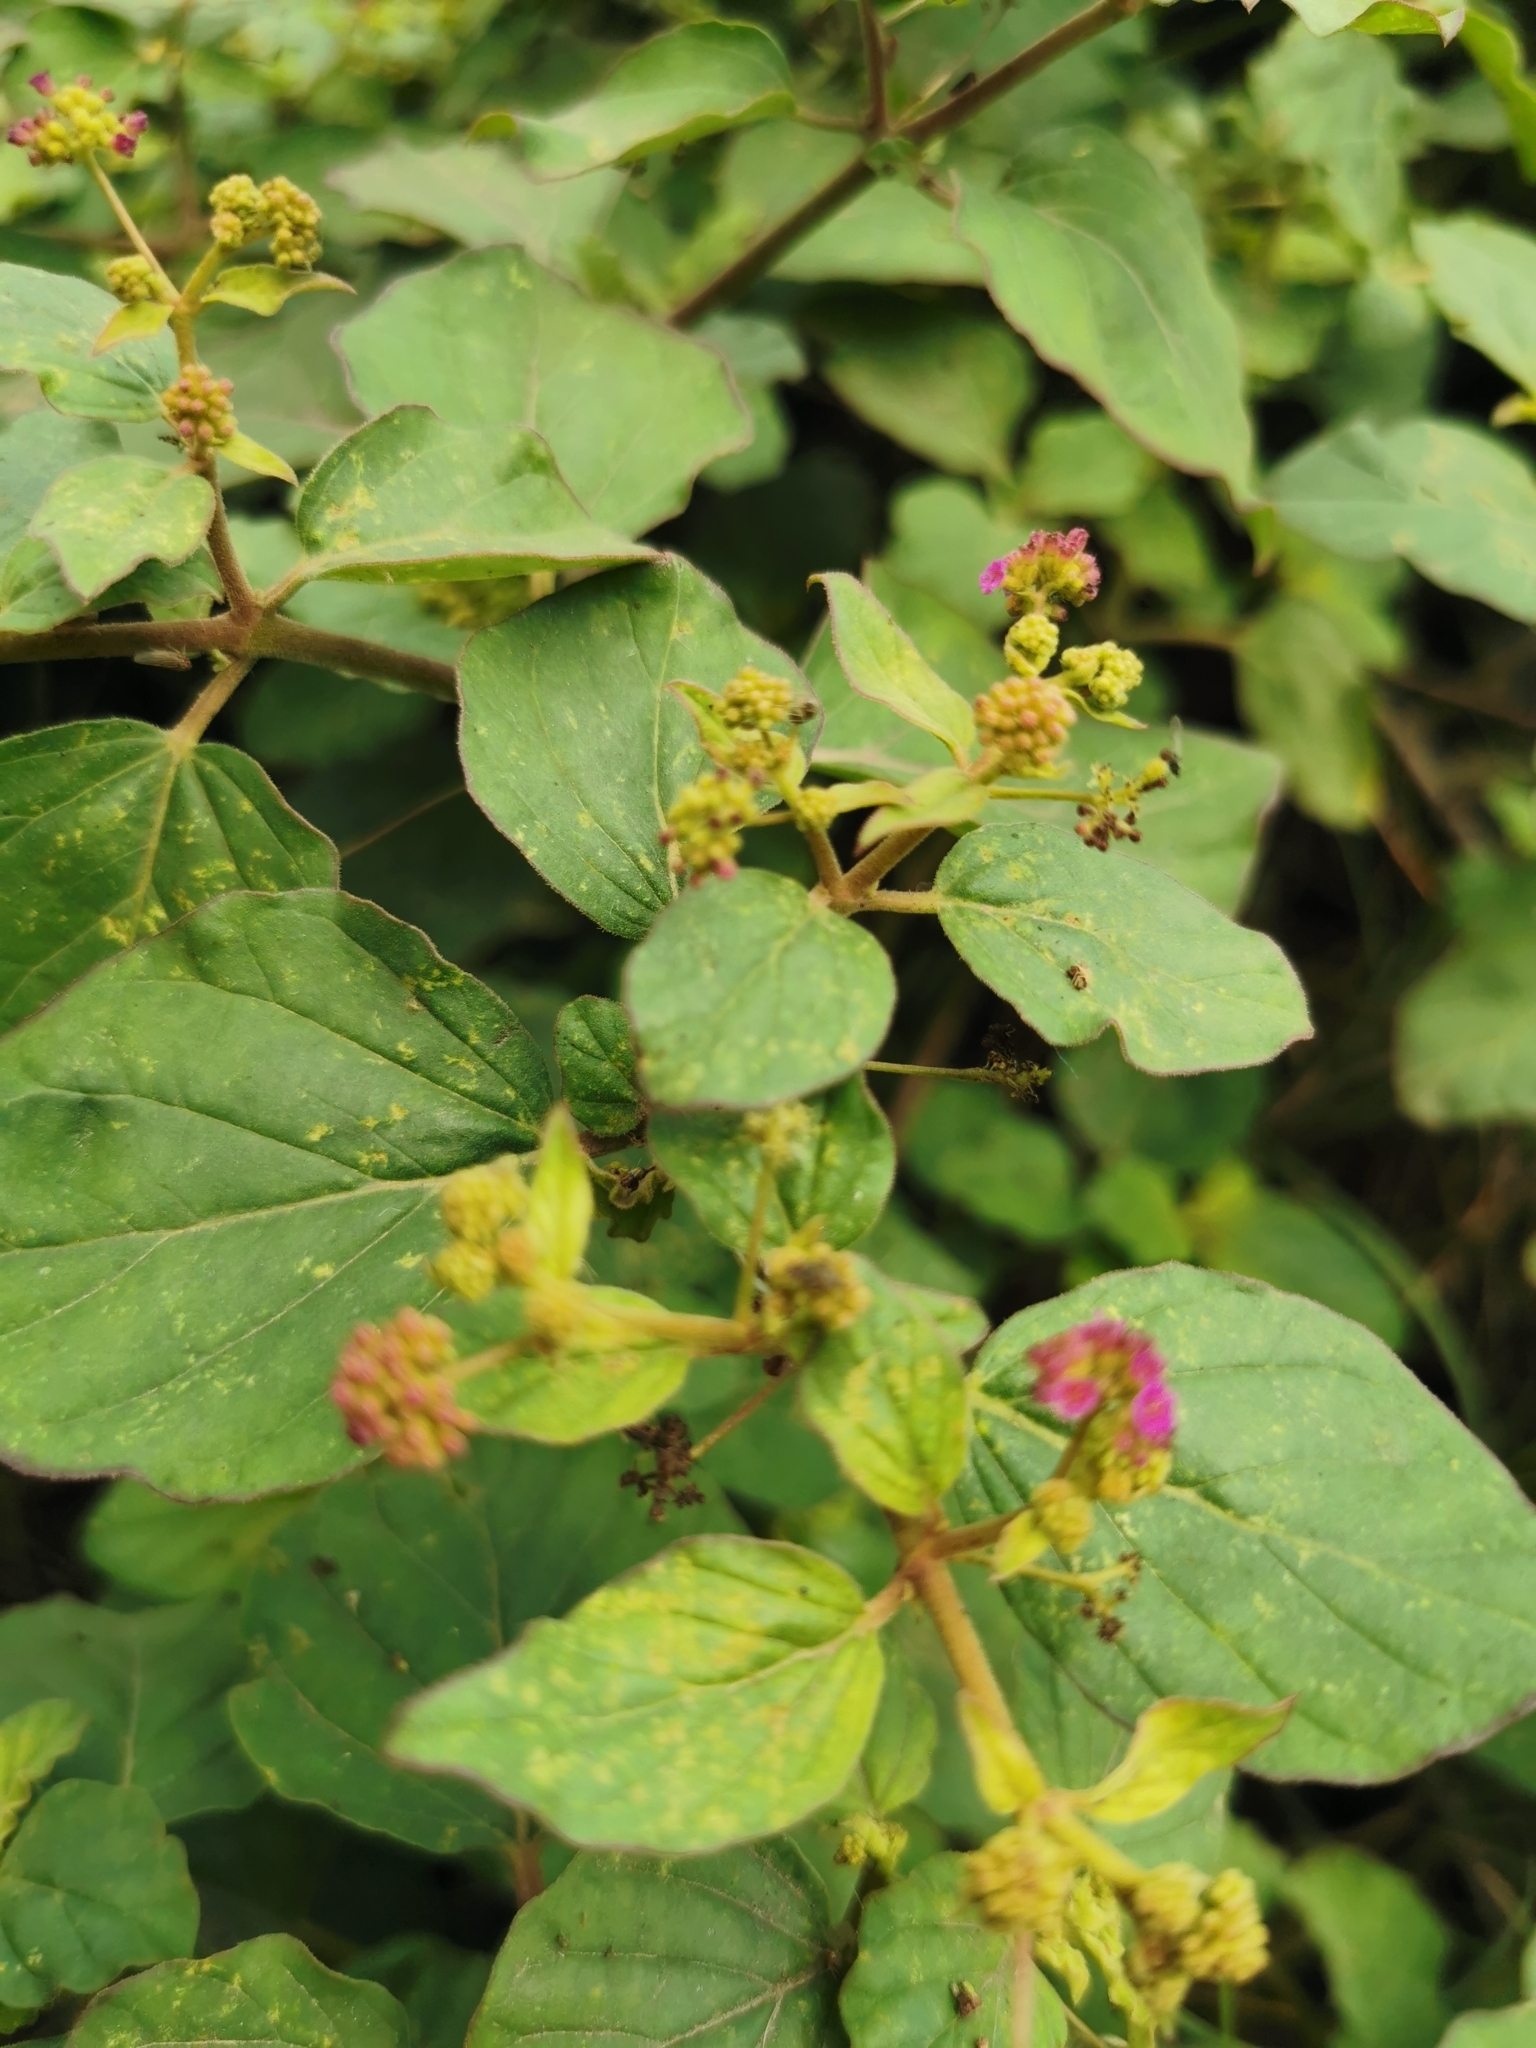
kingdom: Plantae
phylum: Tracheophyta
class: Magnoliopsida
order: Caryophyllales
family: Nyctaginaceae
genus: Boerhavia
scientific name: Boerhavia coccinea
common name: Scarlet spiderling
